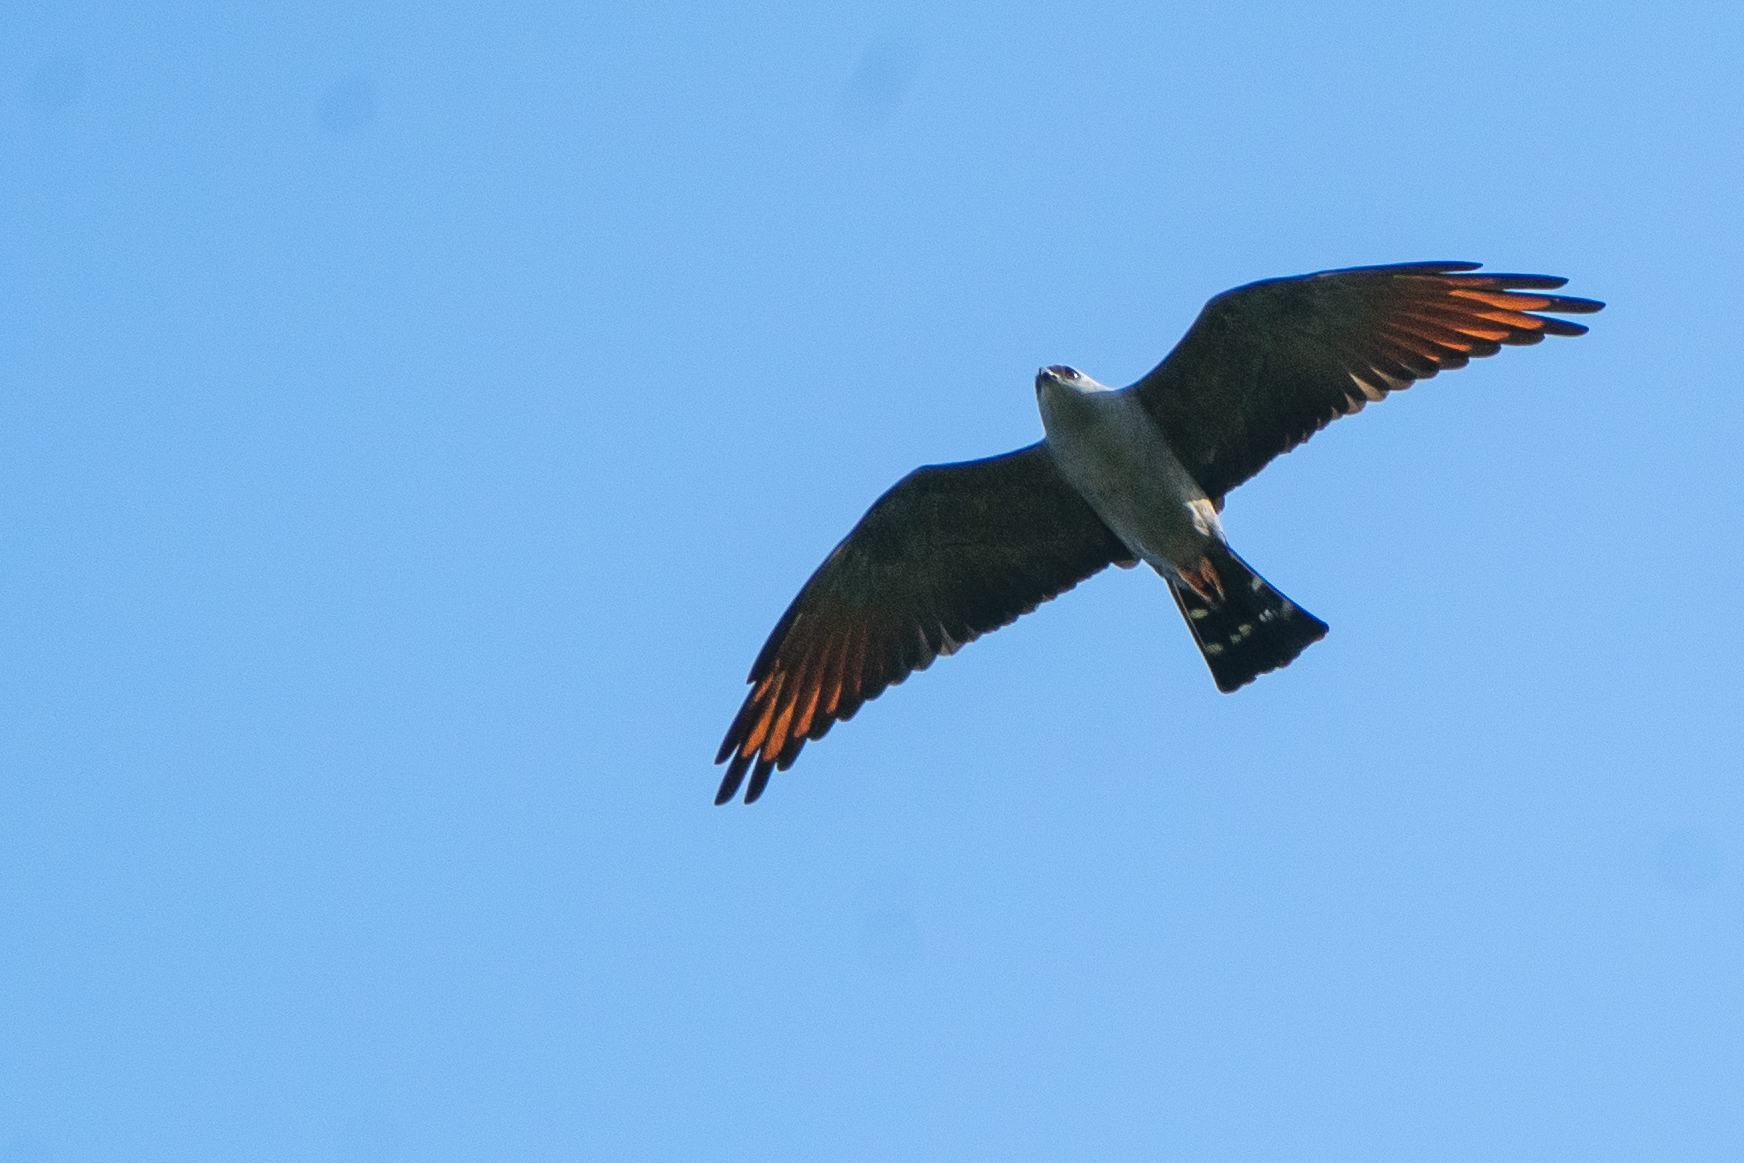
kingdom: Animalia
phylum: Chordata
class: Aves
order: Accipitriformes
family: Accipitridae
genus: Ictinia
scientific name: Ictinia plumbea
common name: Plumbeous kite
